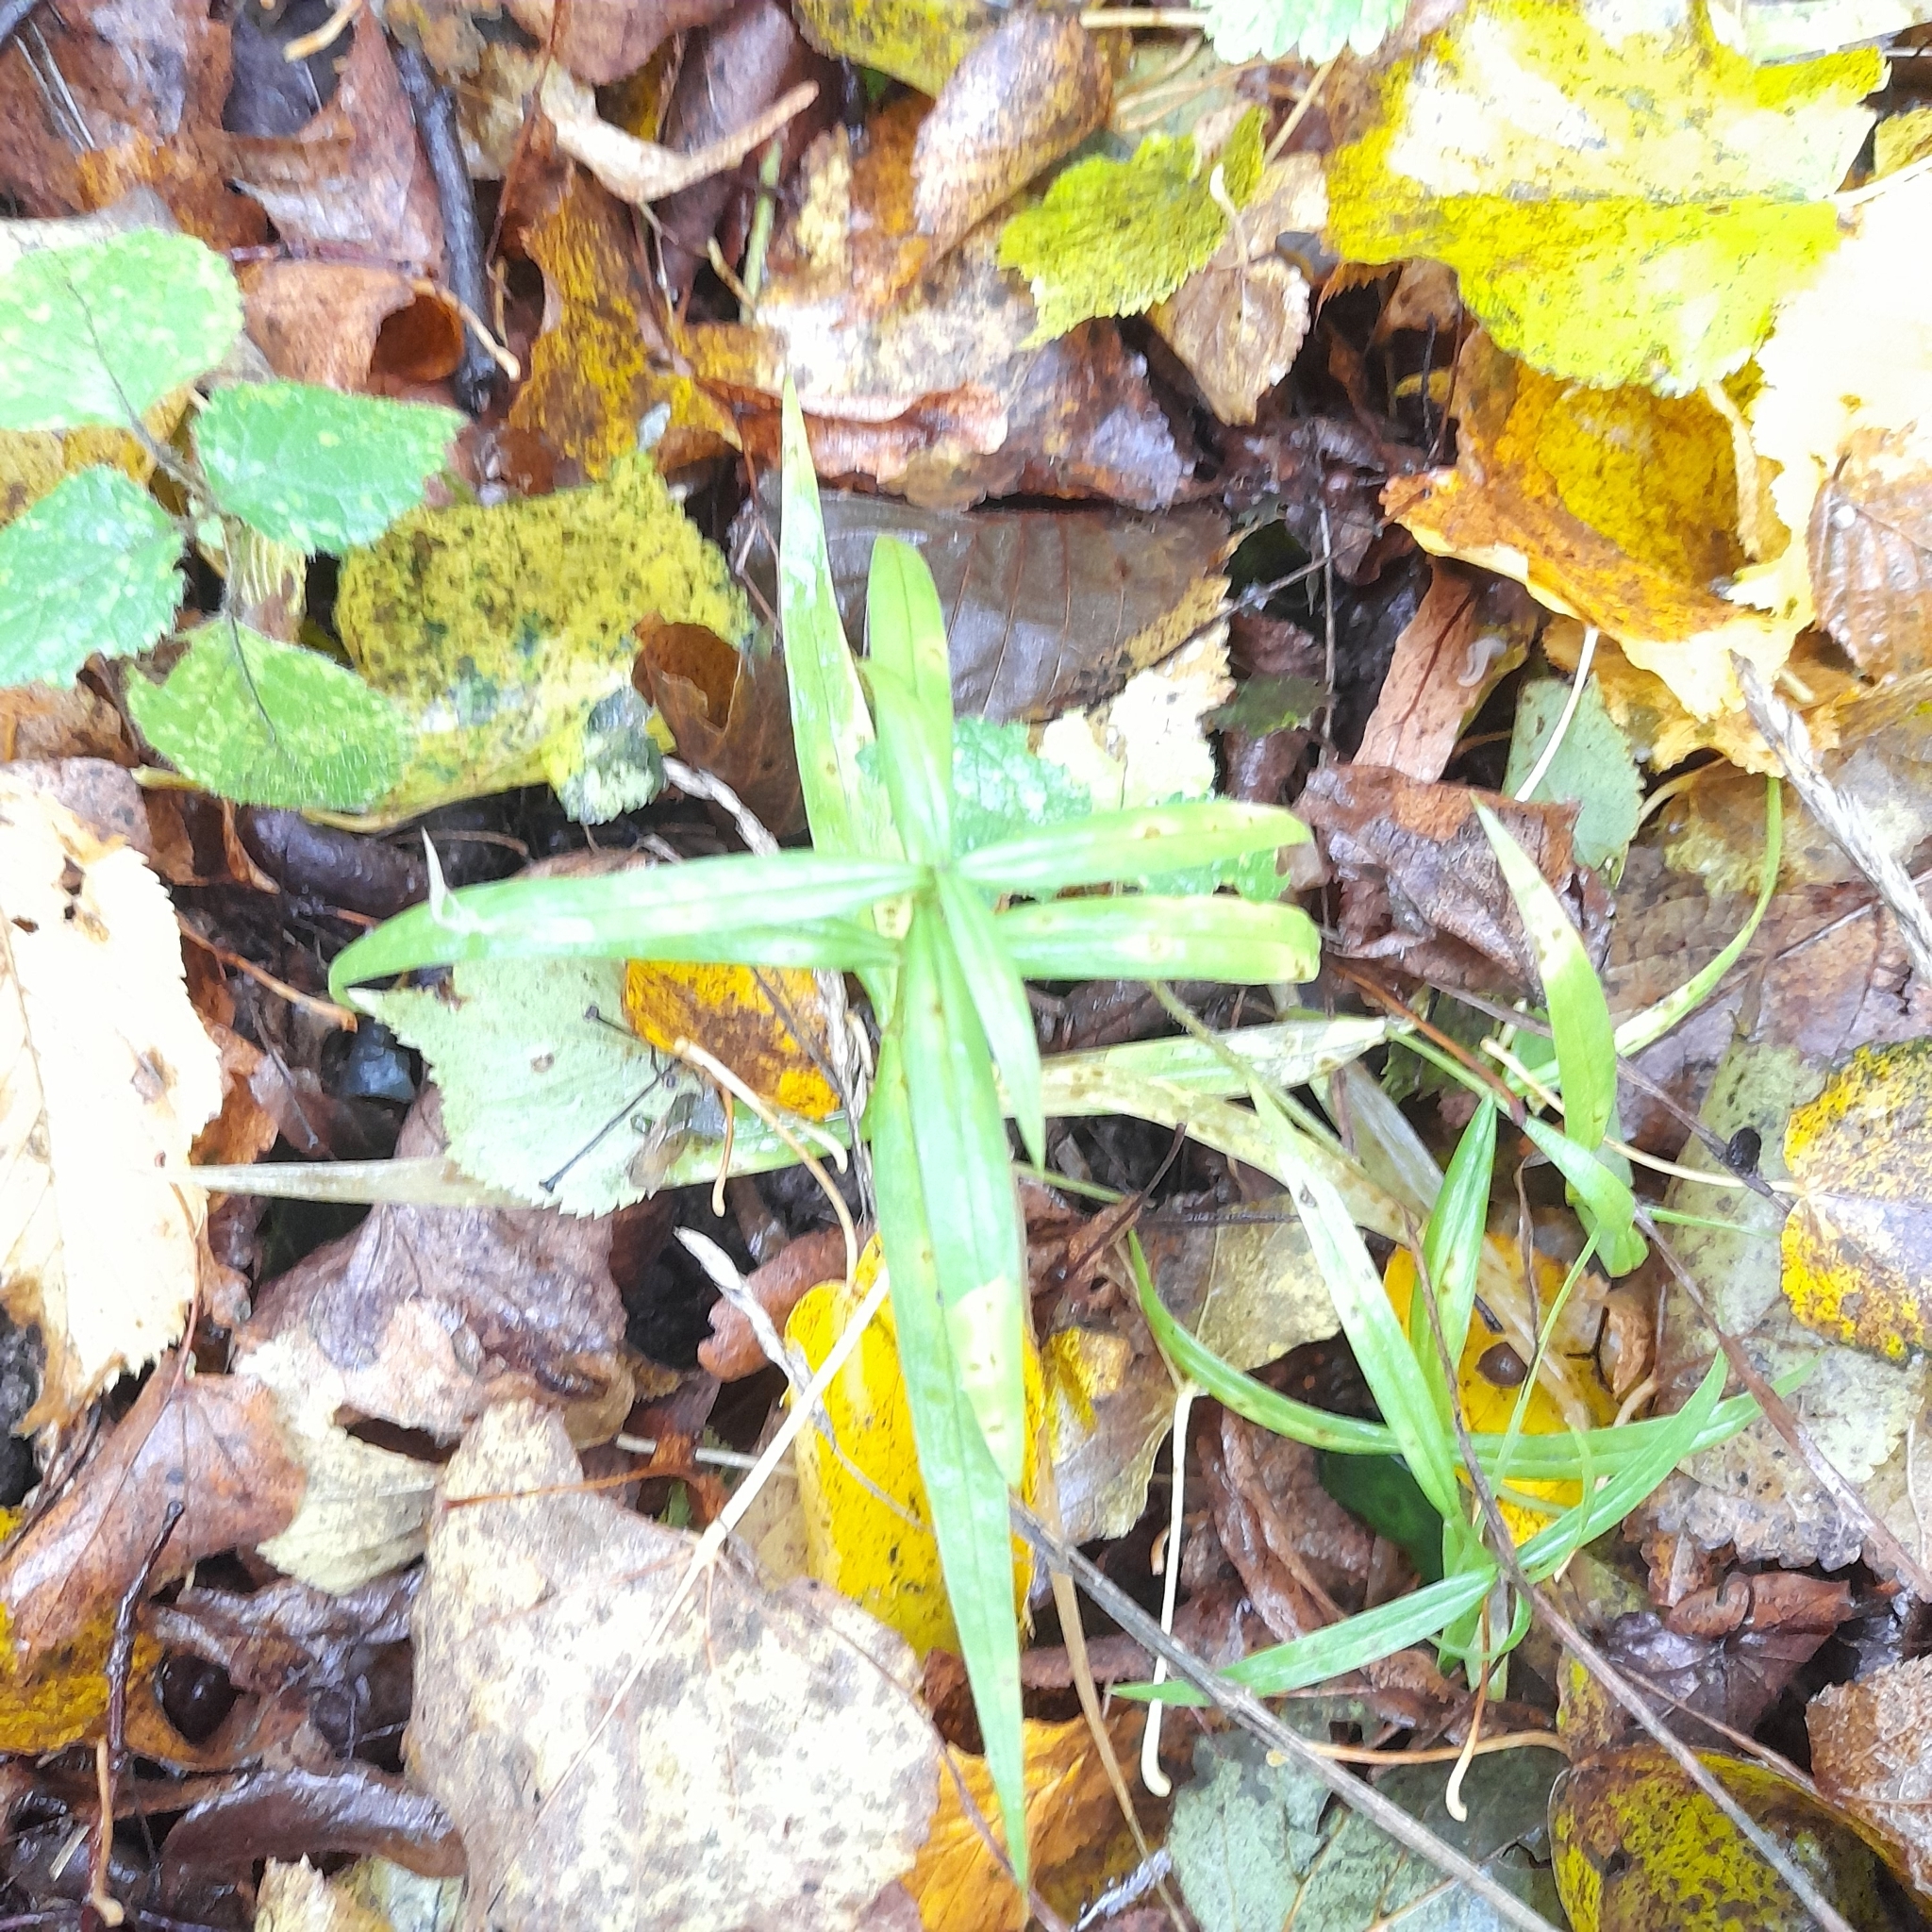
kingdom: Plantae
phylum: Tracheophyta
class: Magnoliopsida
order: Caryophyllales
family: Caryophyllaceae
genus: Rabelera
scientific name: Rabelera holostea
